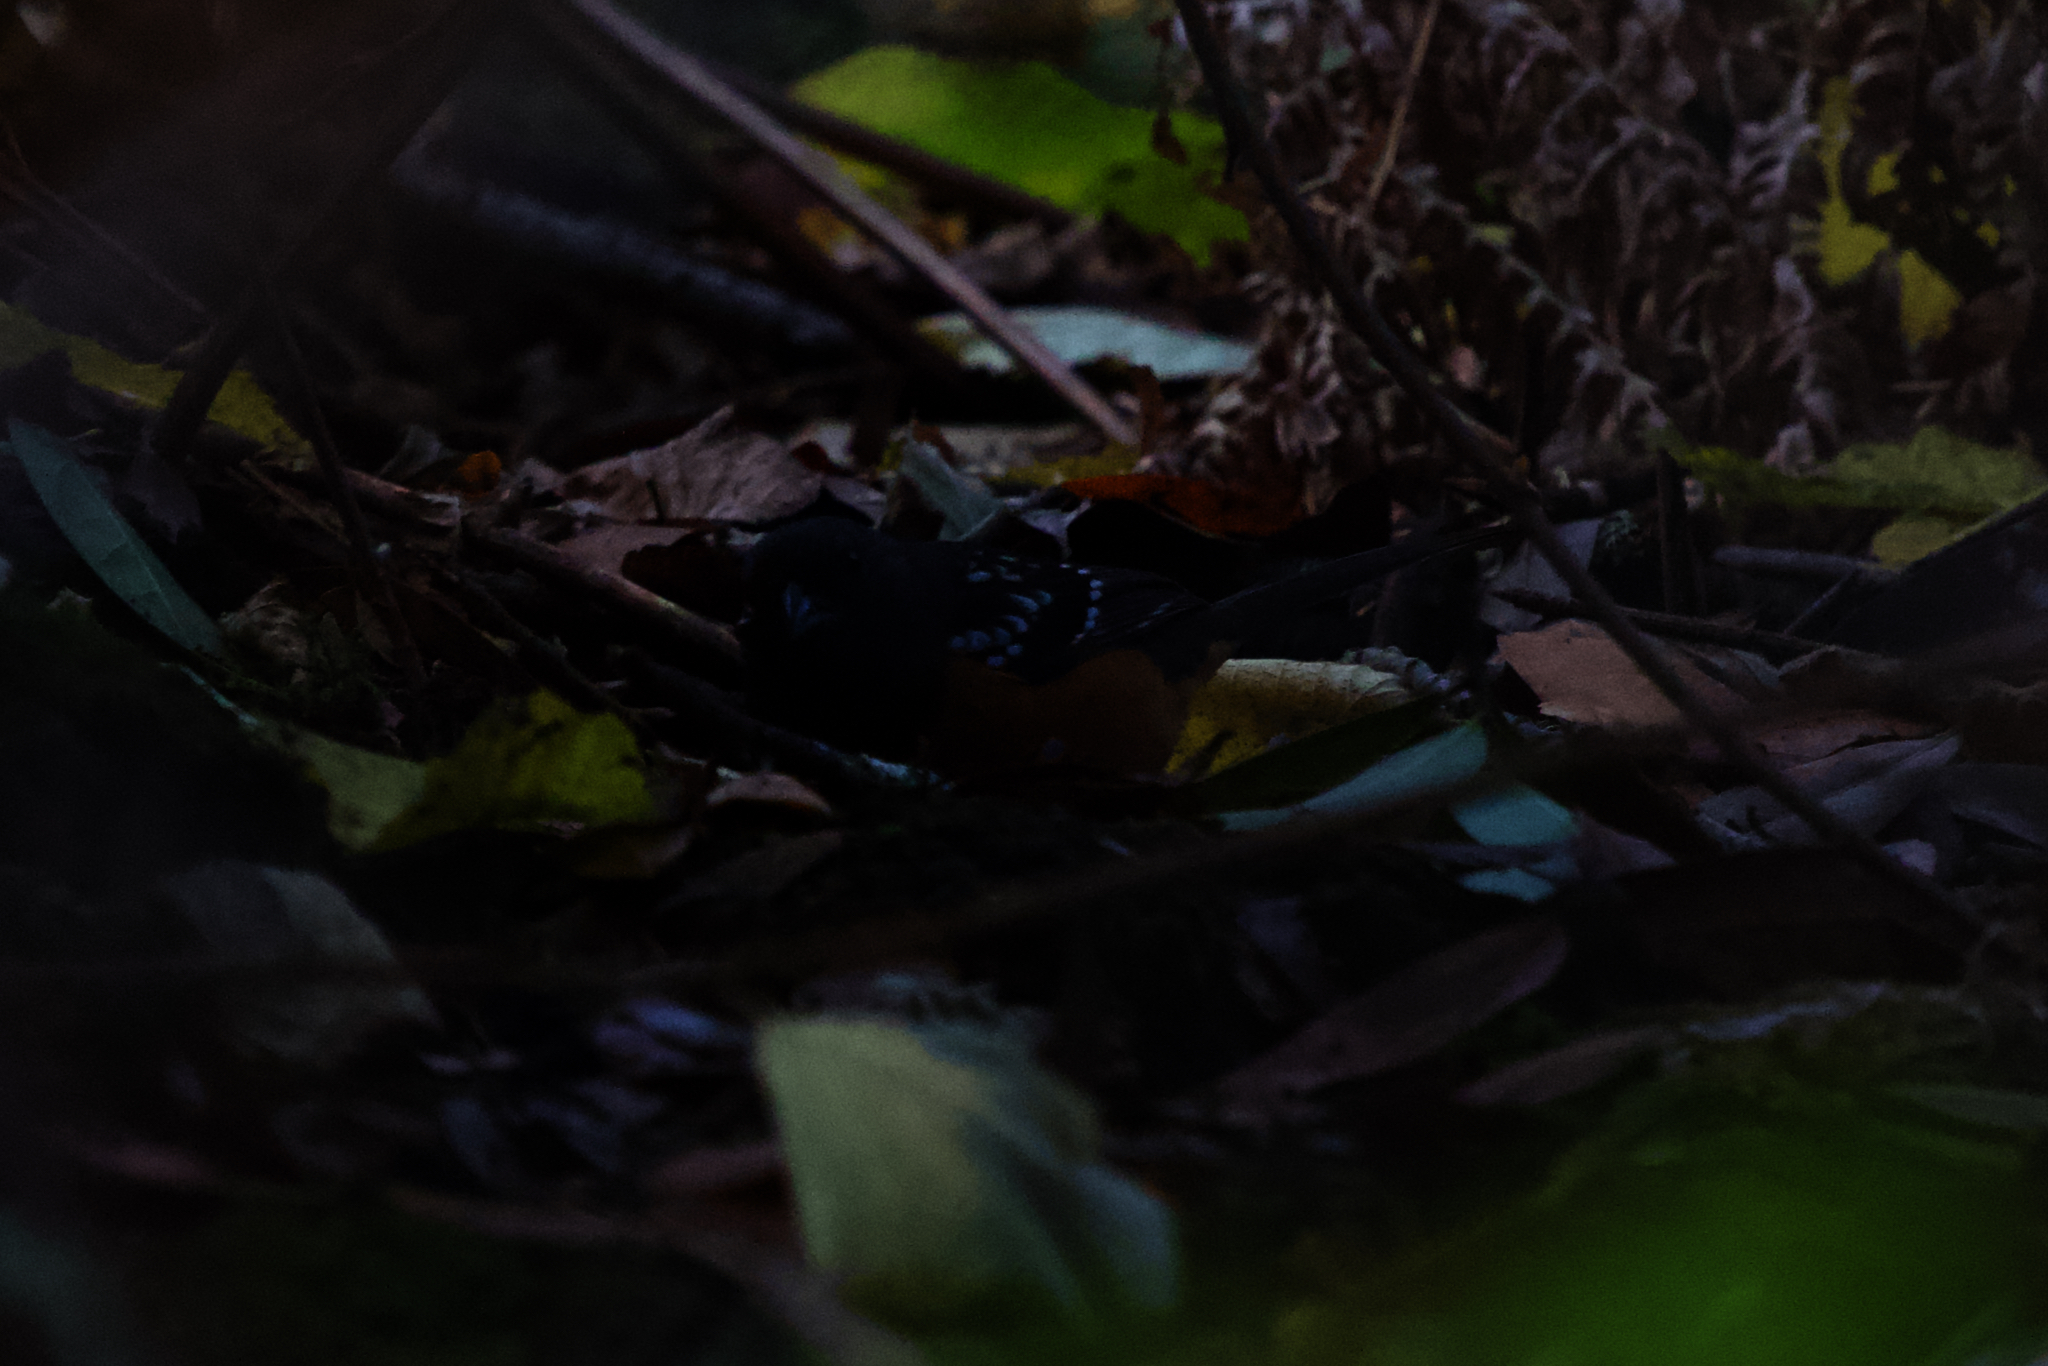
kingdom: Animalia
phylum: Chordata
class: Aves
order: Passeriformes
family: Passerellidae
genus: Pipilo
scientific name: Pipilo maculatus
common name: Spotted towhee
